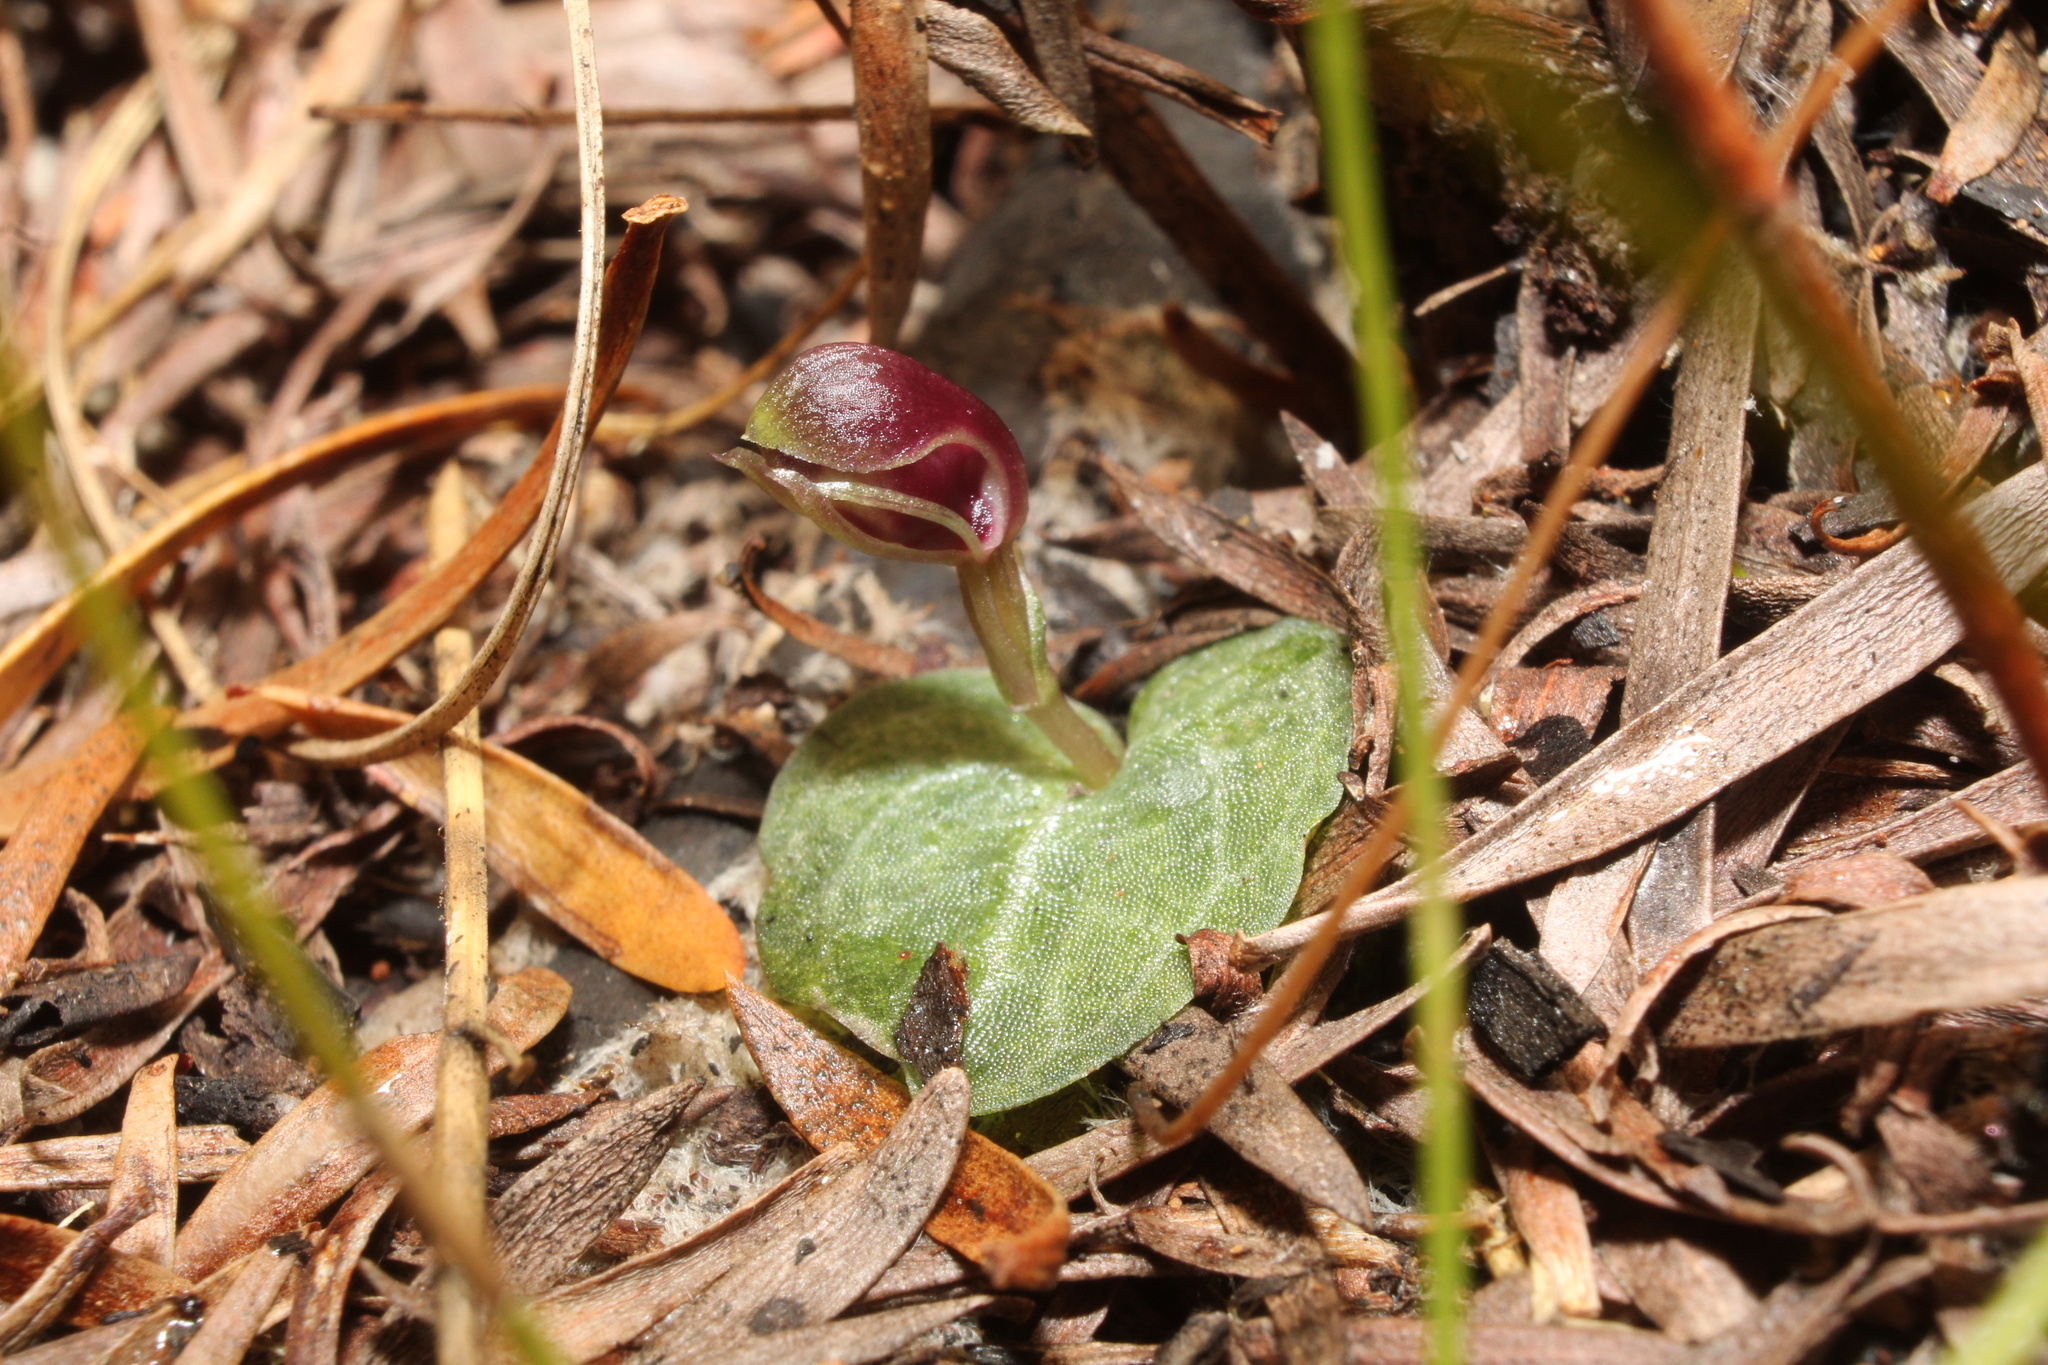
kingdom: Plantae
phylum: Tracheophyta
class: Liliopsida
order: Asparagales
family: Orchidaceae
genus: Corybas
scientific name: Corybas abditus
